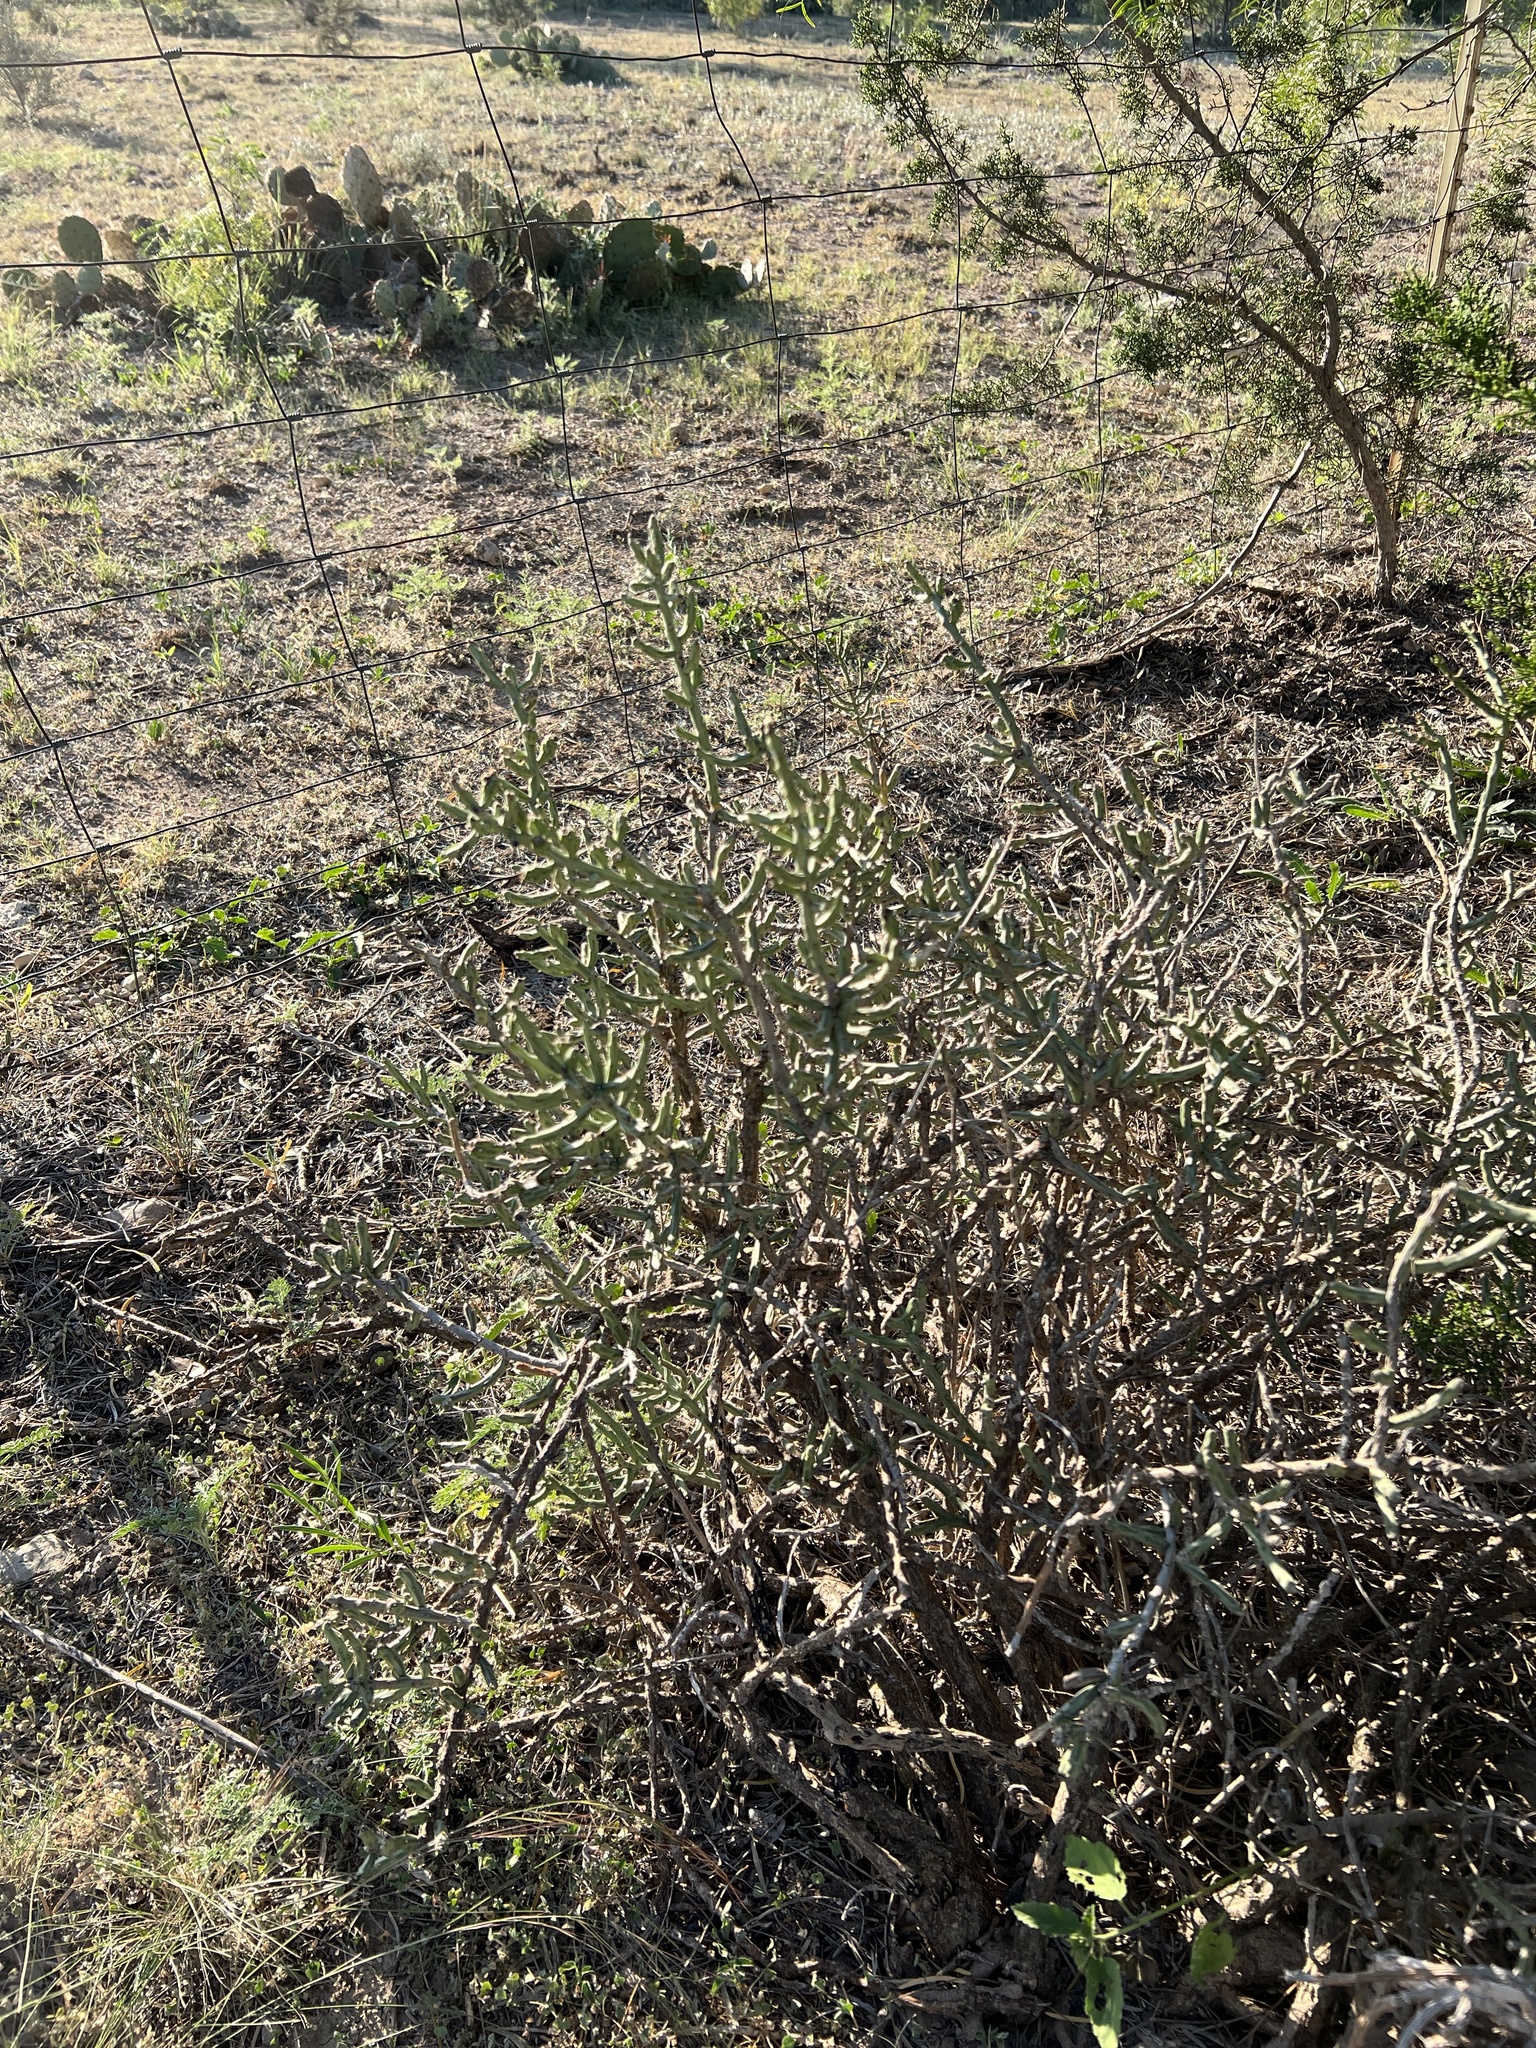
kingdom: Plantae
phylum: Tracheophyta
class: Magnoliopsida
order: Caryophyllales
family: Cactaceae
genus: Cylindropuntia
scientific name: Cylindropuntia leptocaulis
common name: Christmas cactus
